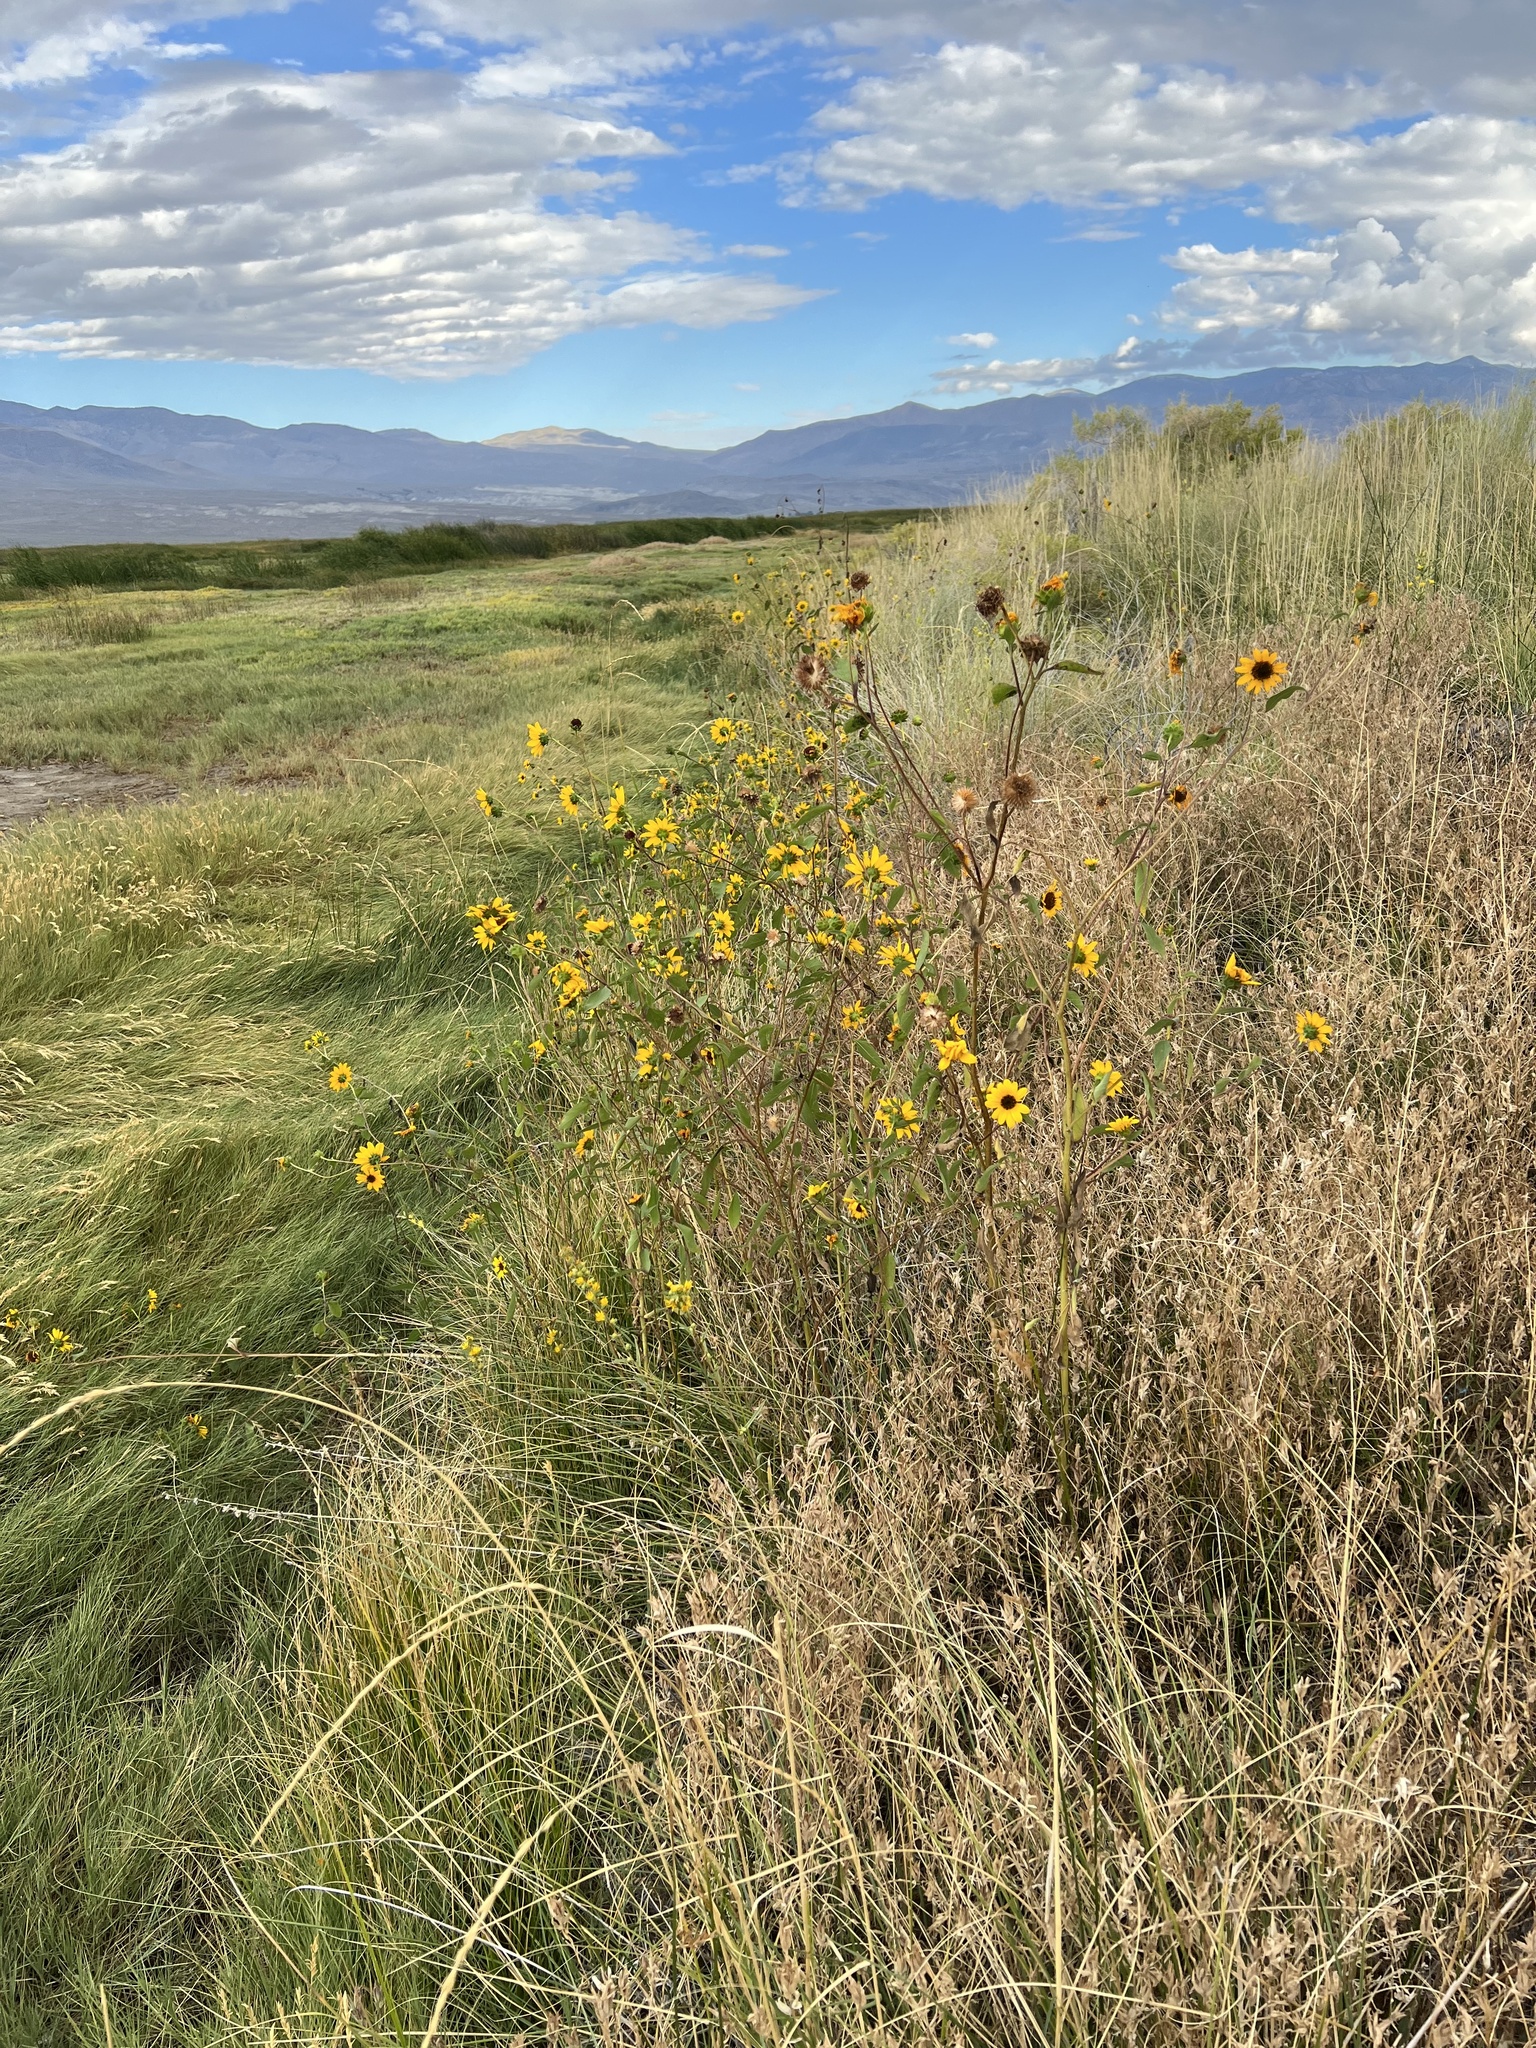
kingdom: Plantae
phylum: Tracheophyta
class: Magnoliopsida
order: Asterales
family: Asteraceae
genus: Helianthus
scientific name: Helianthus annuus
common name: Sunflower
